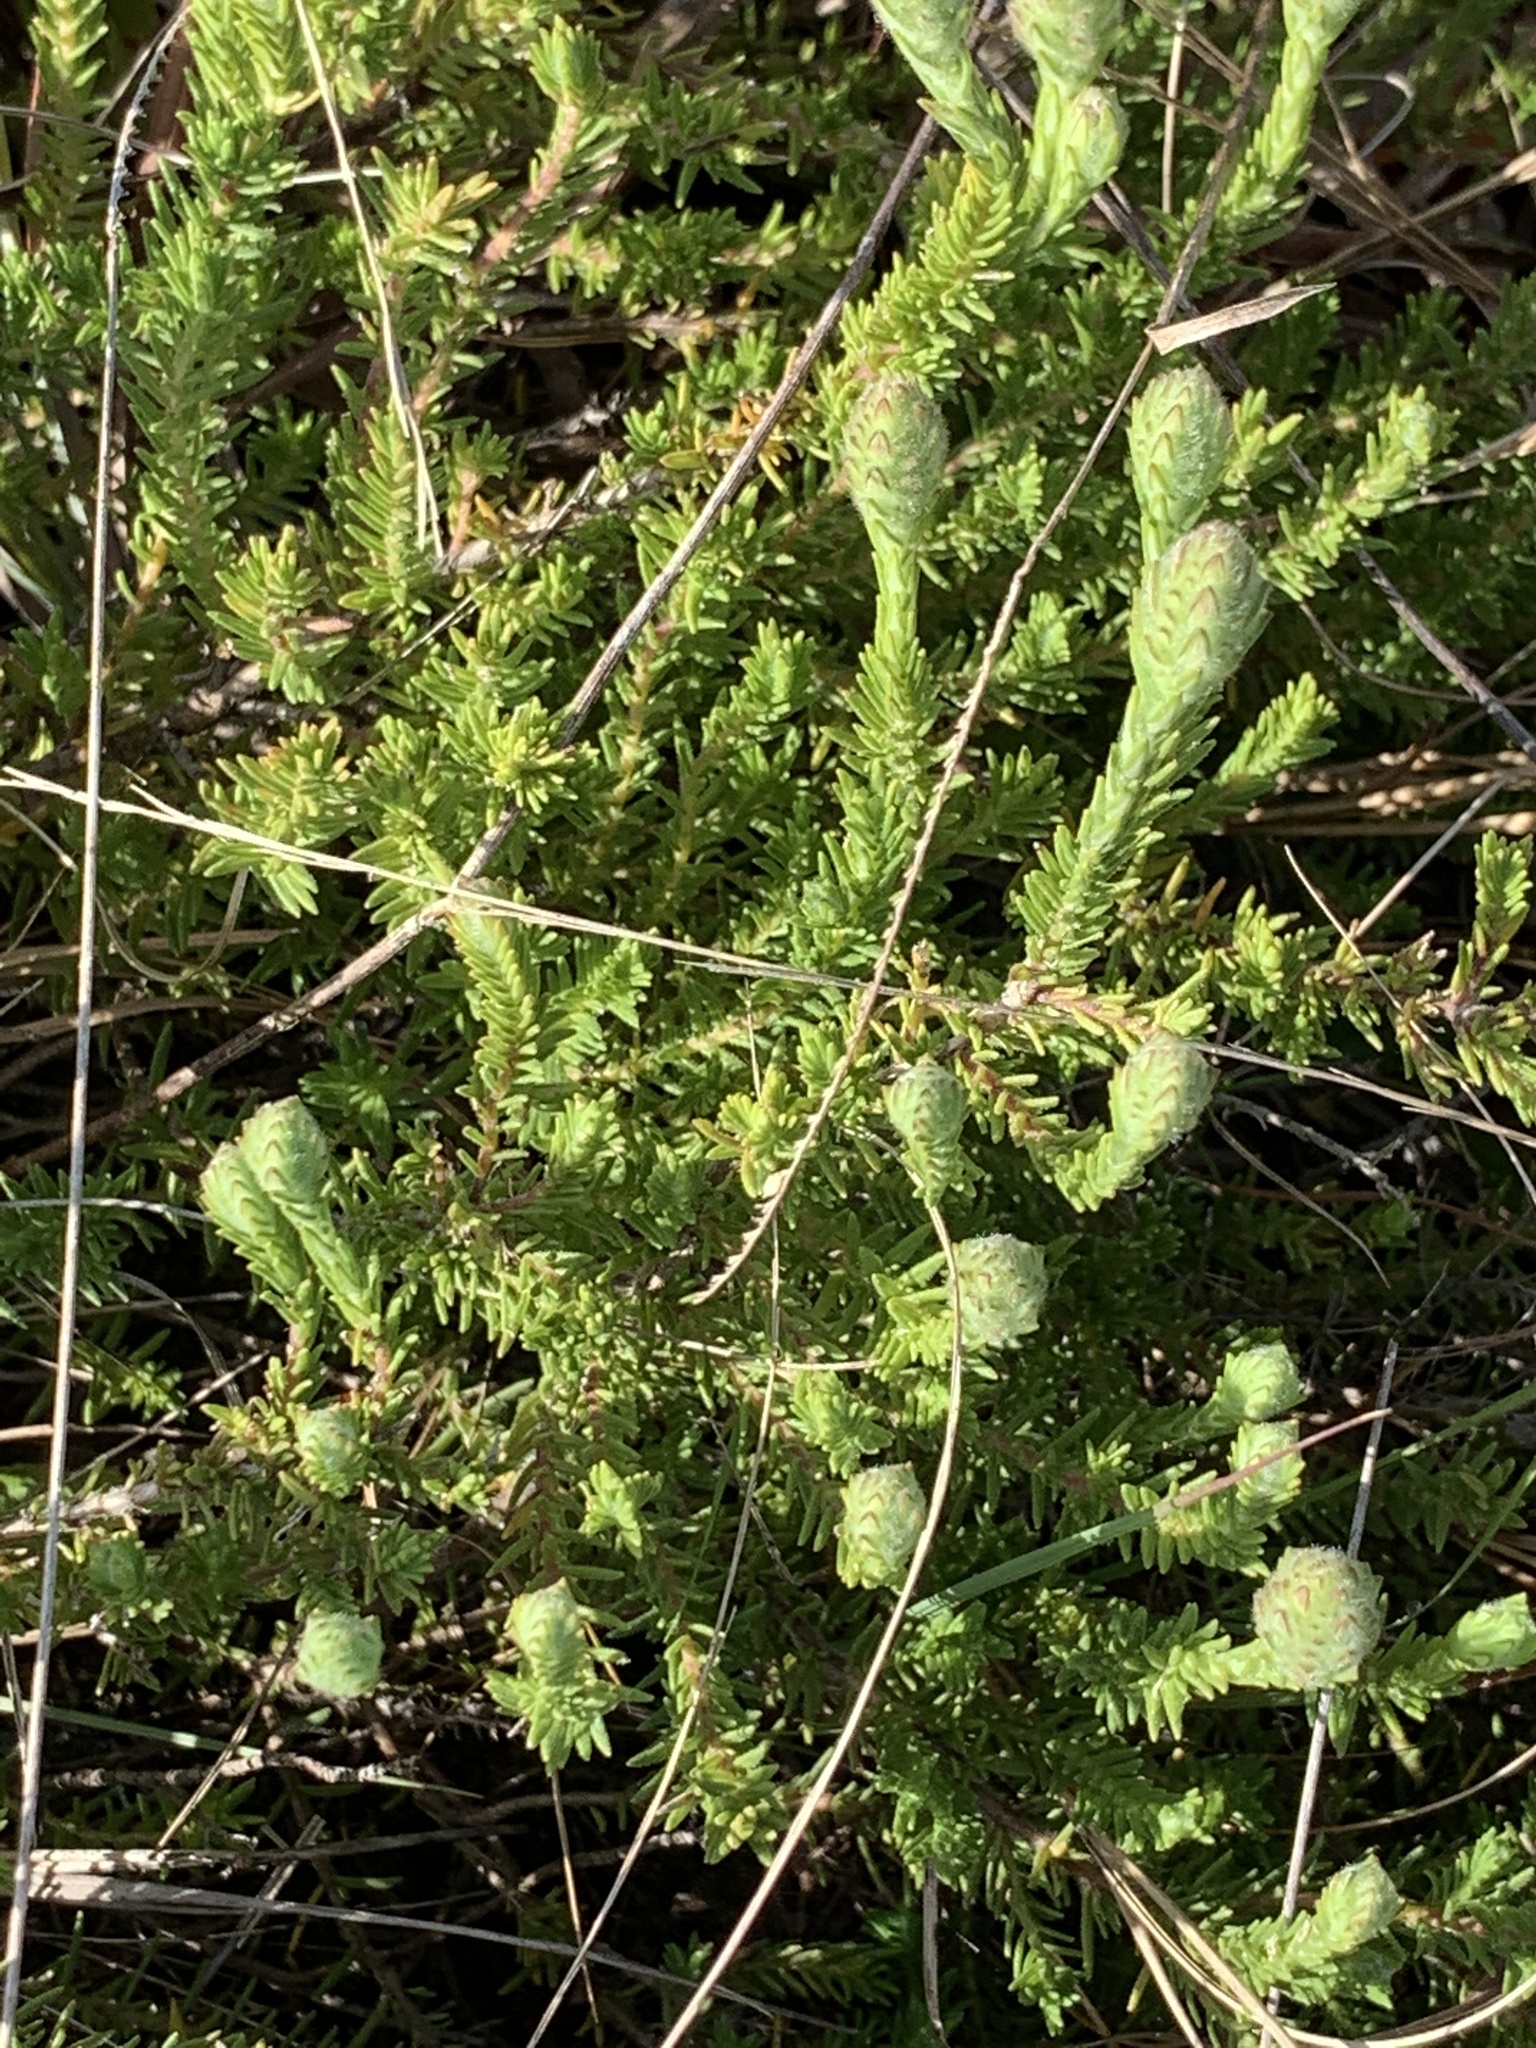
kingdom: Plantae
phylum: Tracheophyta
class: Magnoliopsida
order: Lamiales
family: Lamiaceae
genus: Piloblephis
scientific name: Piloblephis rigida
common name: Wild pennyroyal
